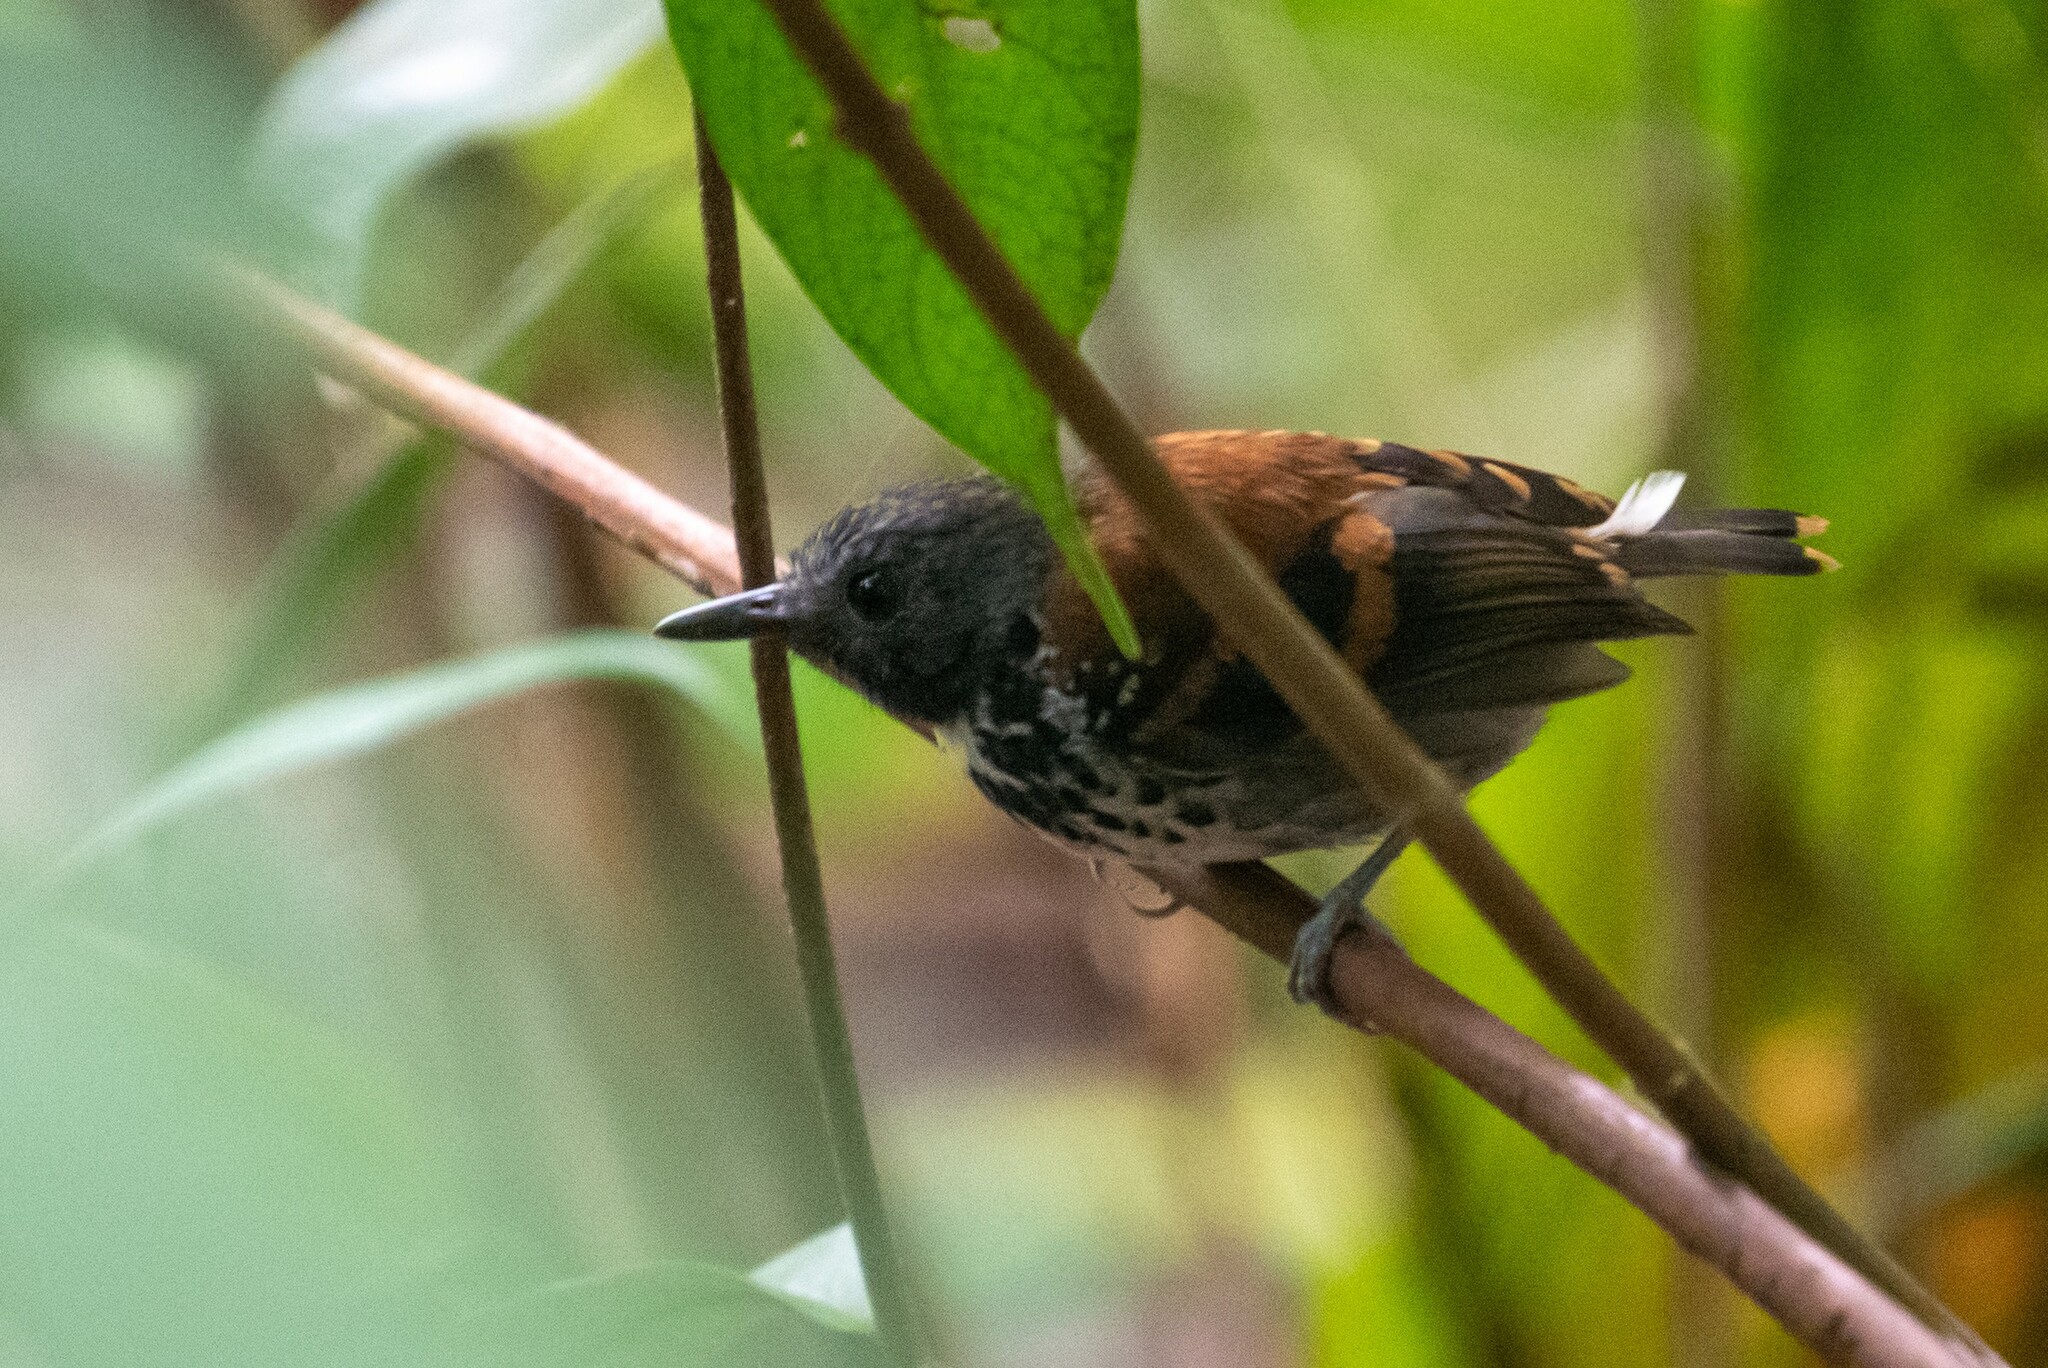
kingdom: Animalia
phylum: Chordata
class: Aves
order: Passeriformes
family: Thamnophilidae
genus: Hylophylax
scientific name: Hylophylax naevioides
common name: Spotted antbird
